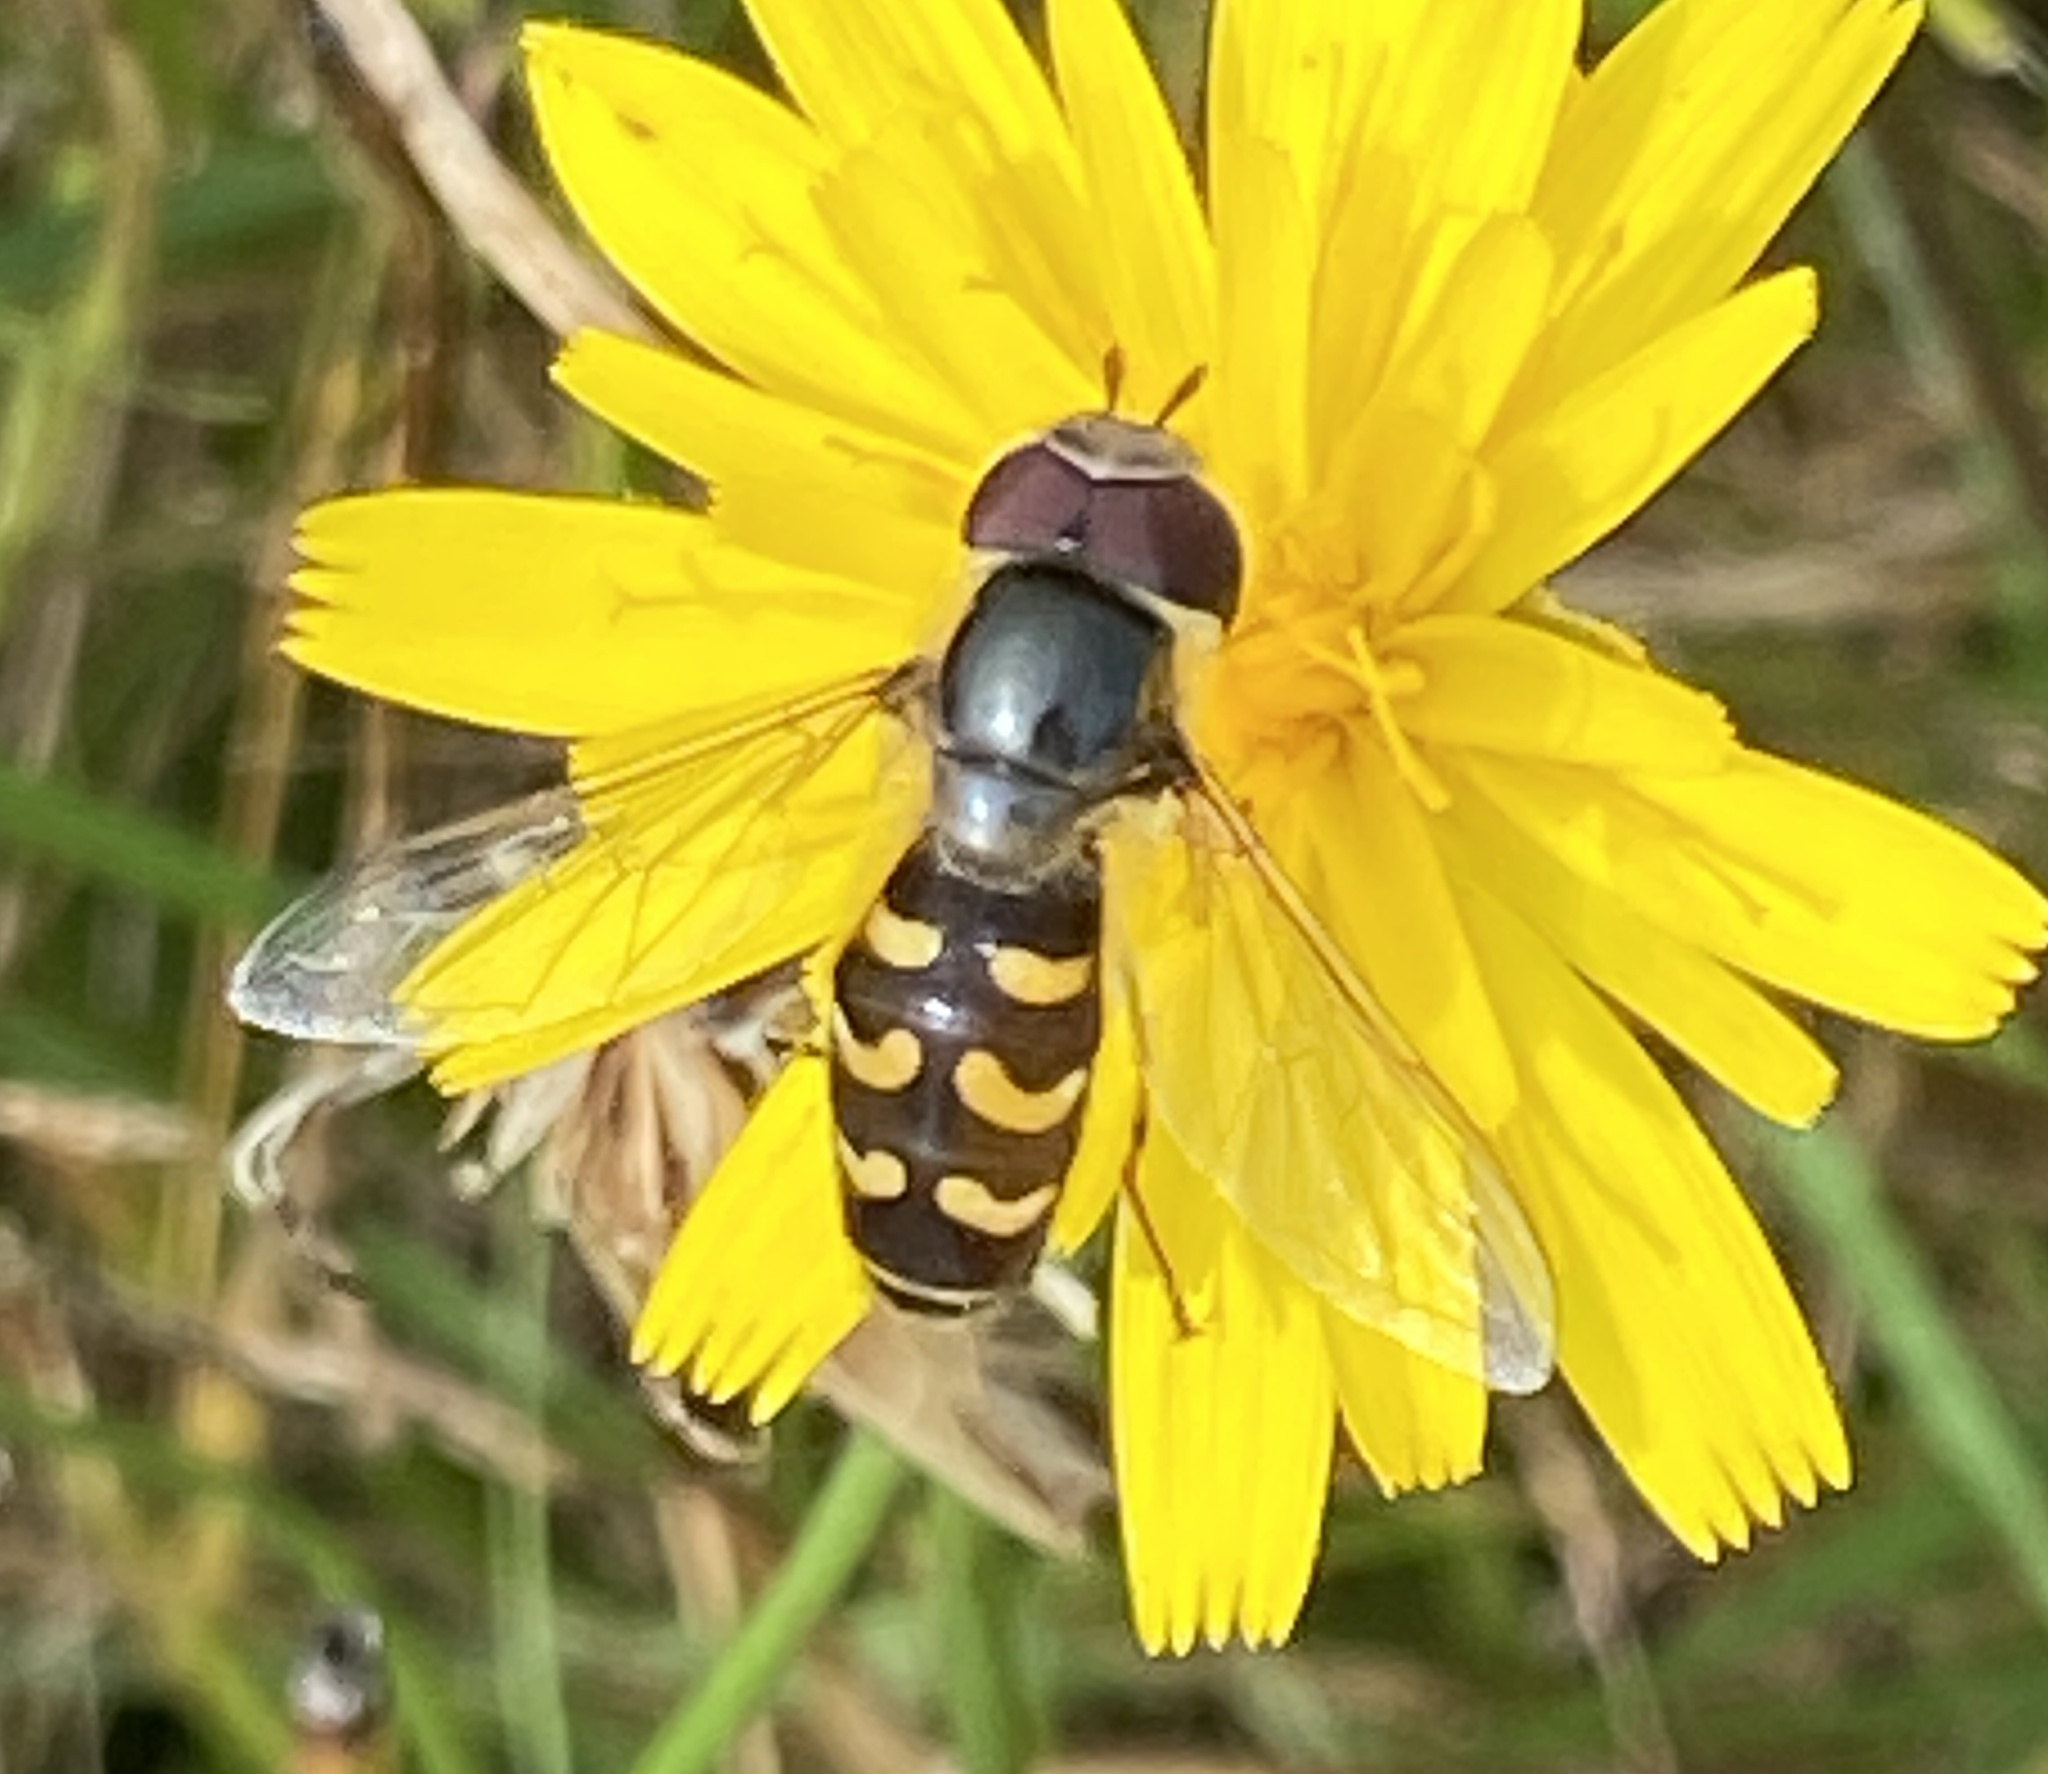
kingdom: Animalia
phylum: Arthropoda
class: Insecta
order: Diptera
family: Syrphidae
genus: Scaeva
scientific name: Scaeva selenitica
